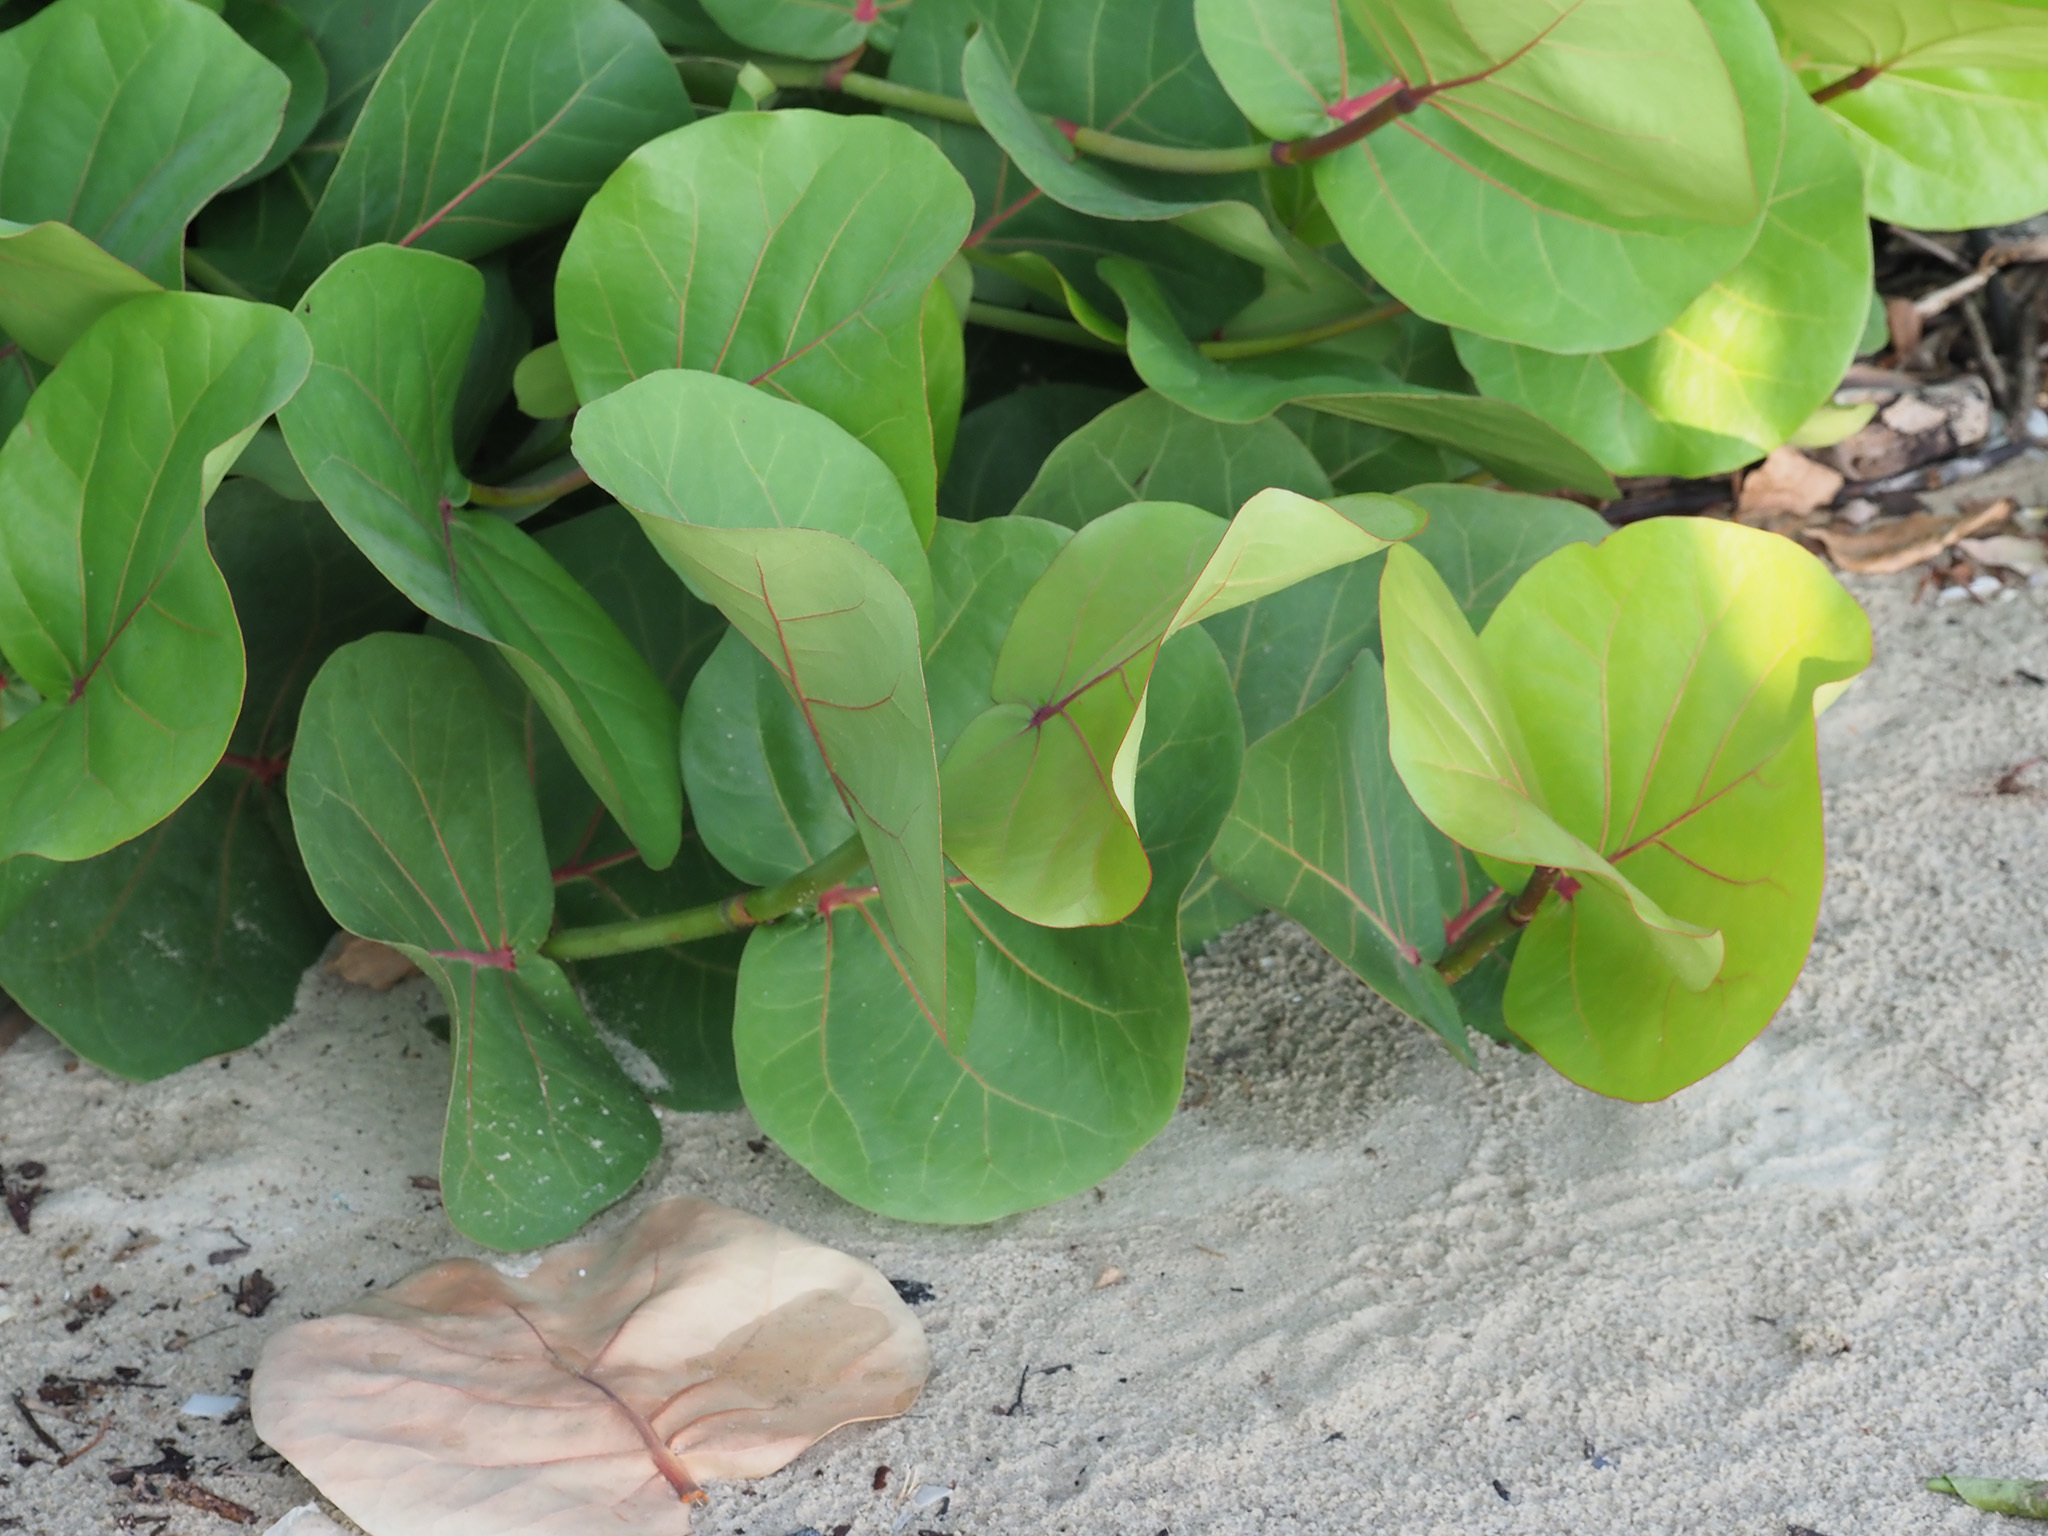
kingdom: Plantae
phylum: Tracheophyta
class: Magnoliopsida
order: Caryophyllales
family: Polygonaceae
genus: Coccoloba
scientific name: Coccoloba uvifera
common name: Seagrape
